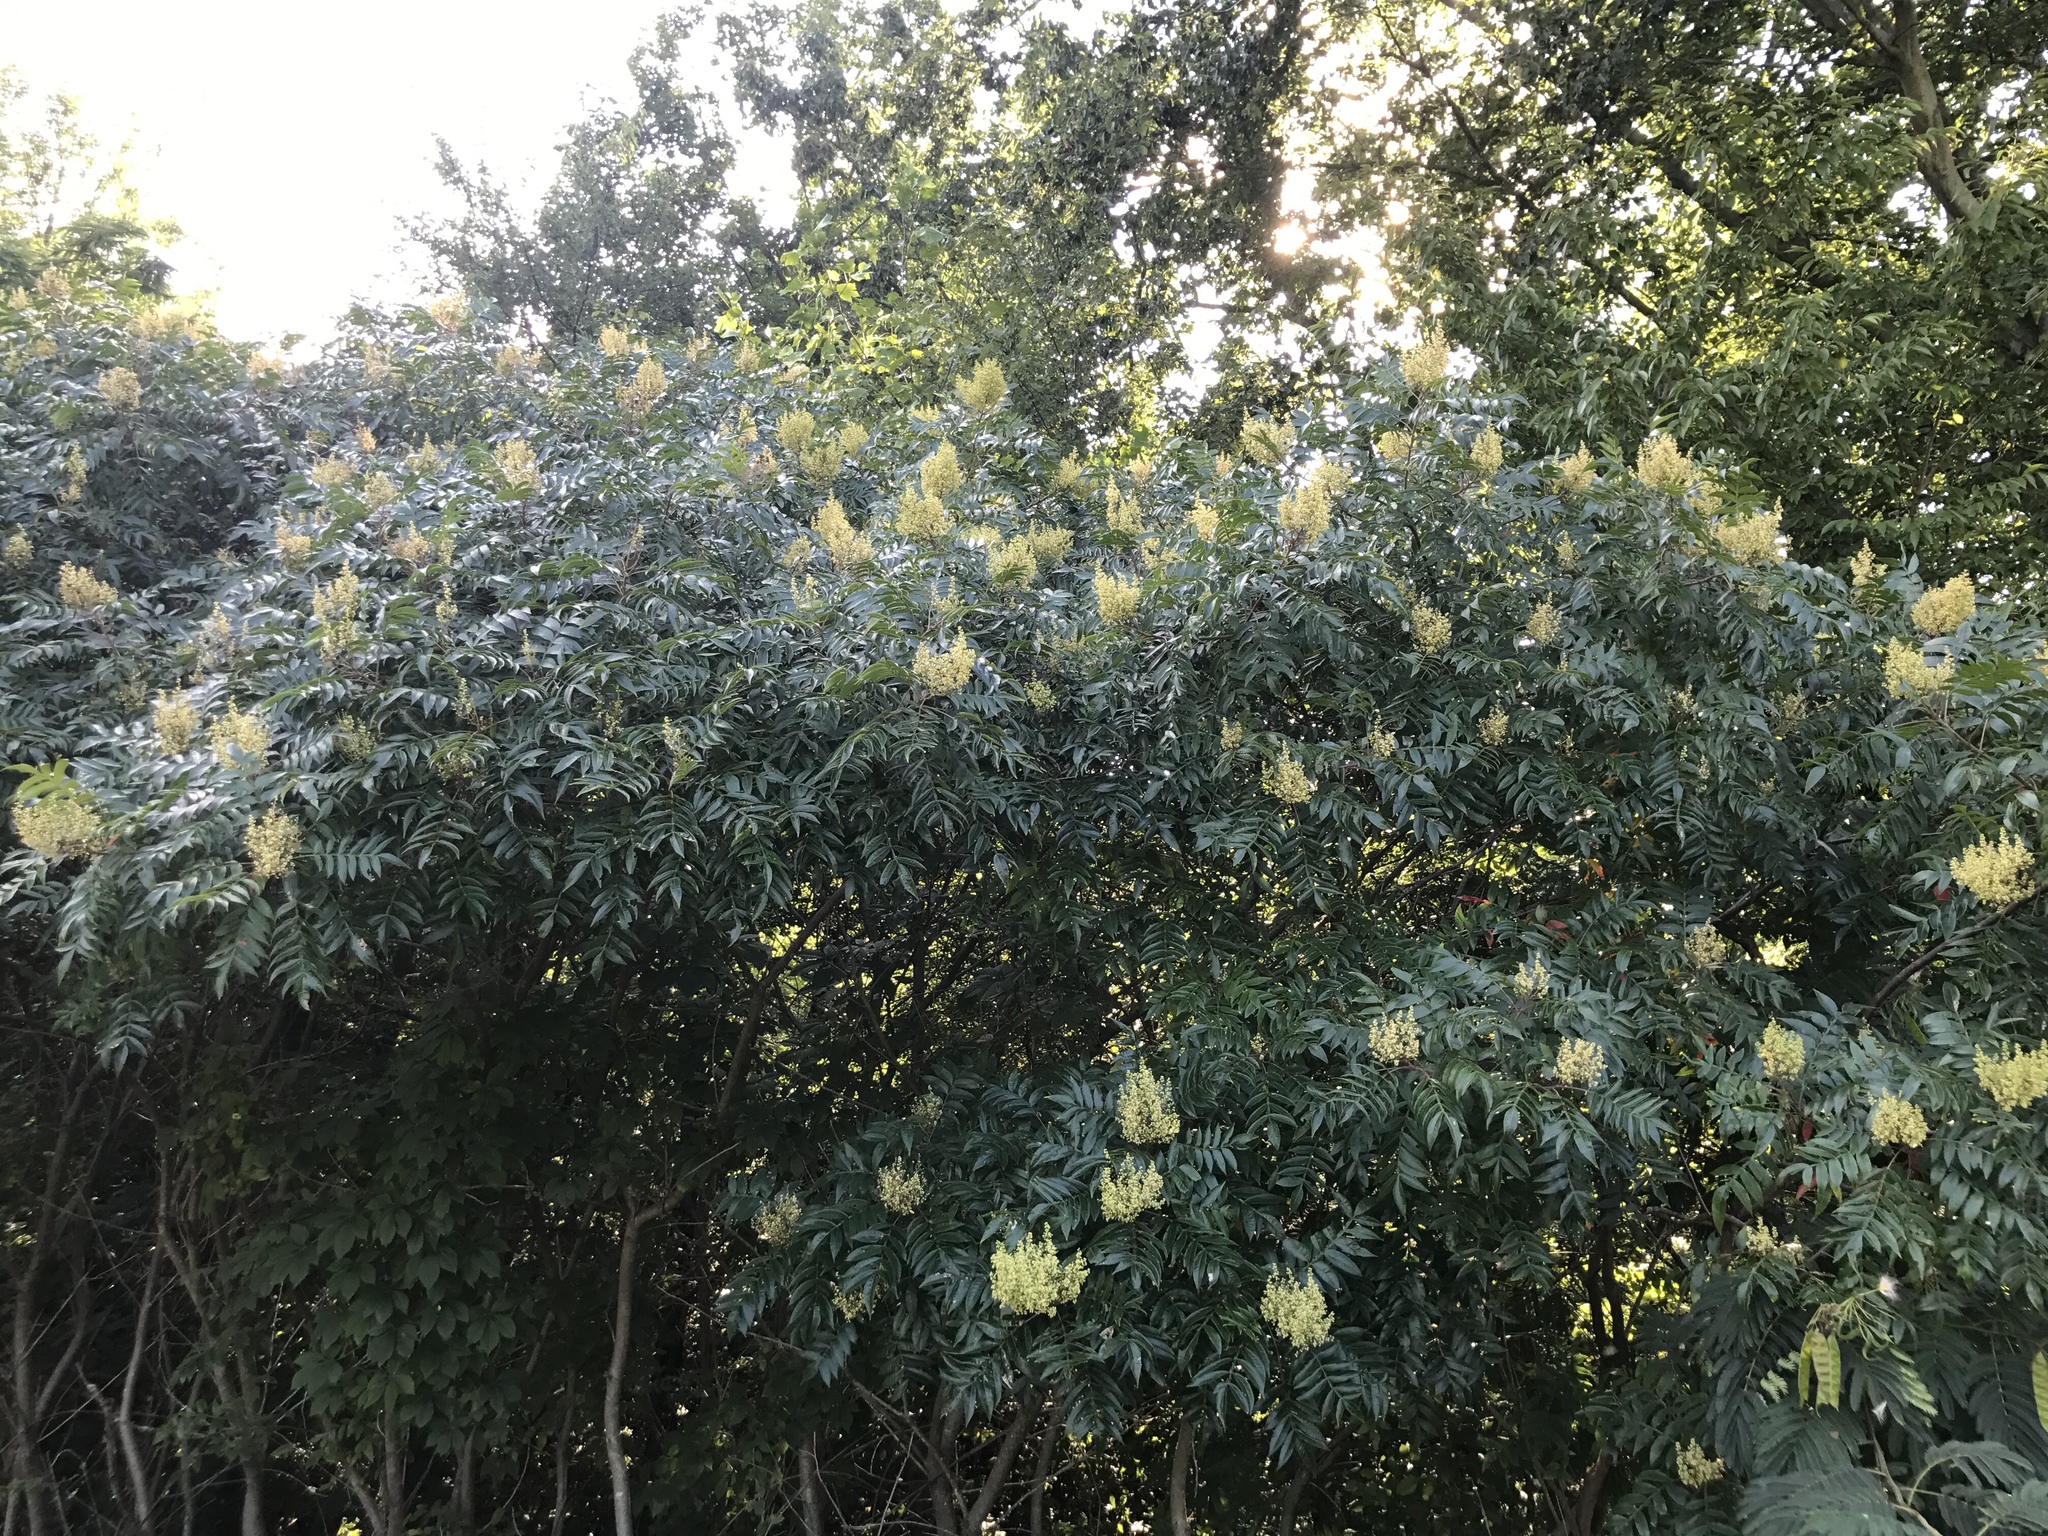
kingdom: Plantae
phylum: Tracheophyta
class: Magnoliopsida
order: Sapindales
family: Anacardiaceae
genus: Rhus
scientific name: Rhus copallina
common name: Shining sumac
